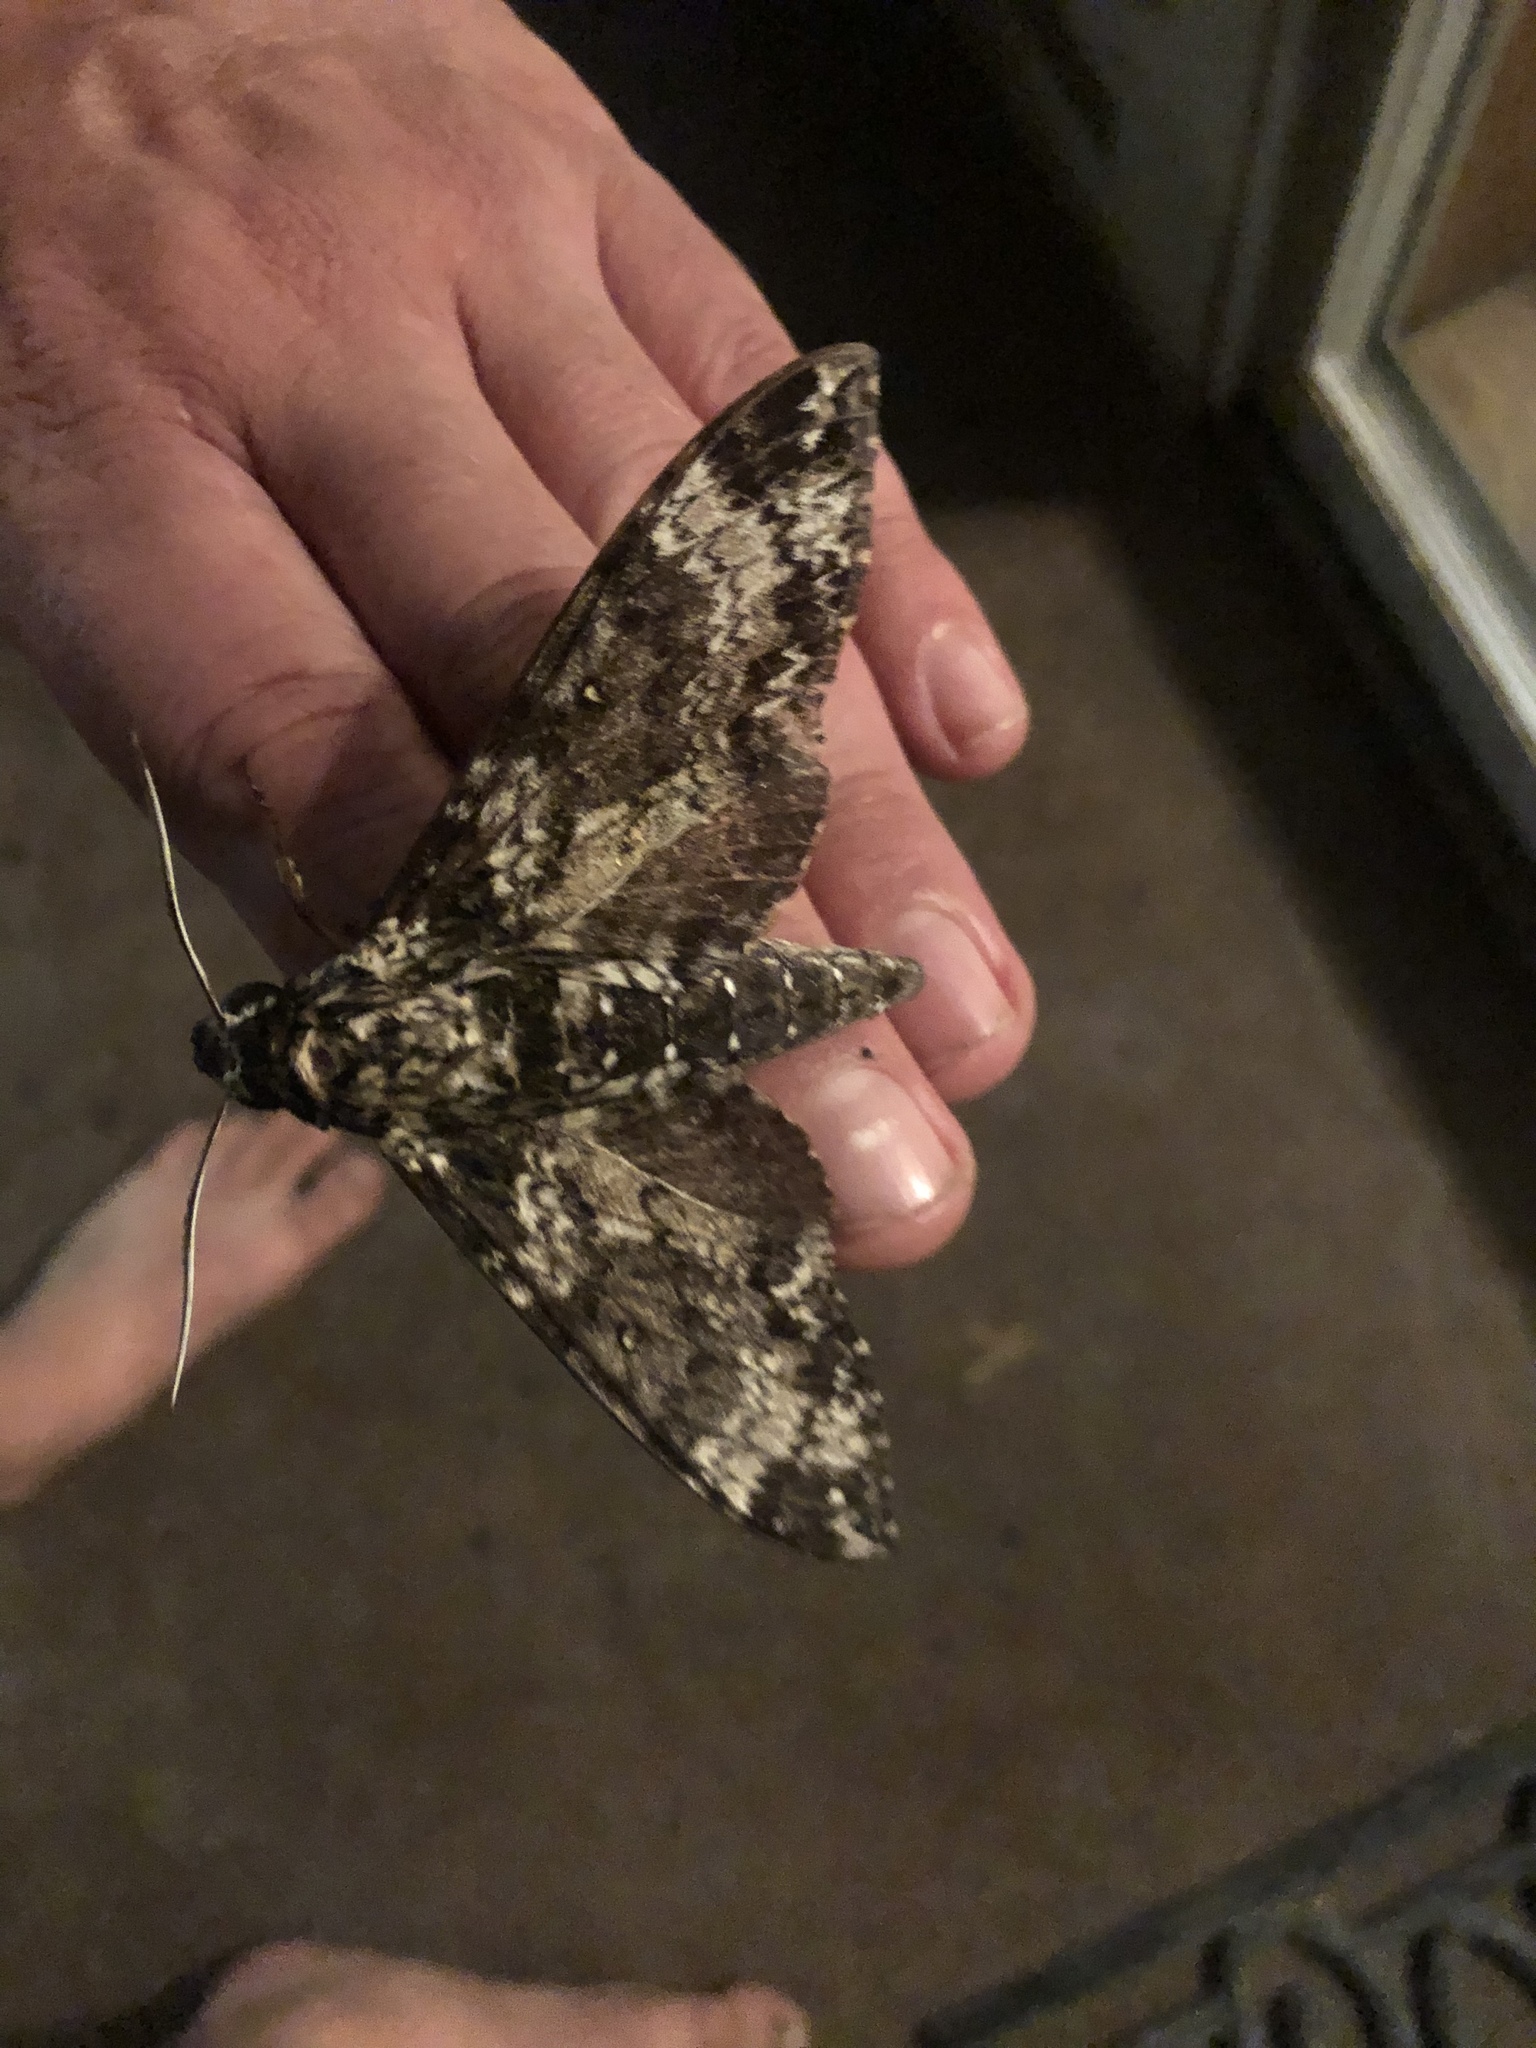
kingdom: Animalia
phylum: Arthropoda
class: Insecta
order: Lepidoptera
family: Sphingidae
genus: Manduca
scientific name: Manduca rustica
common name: Rustic sphinx
